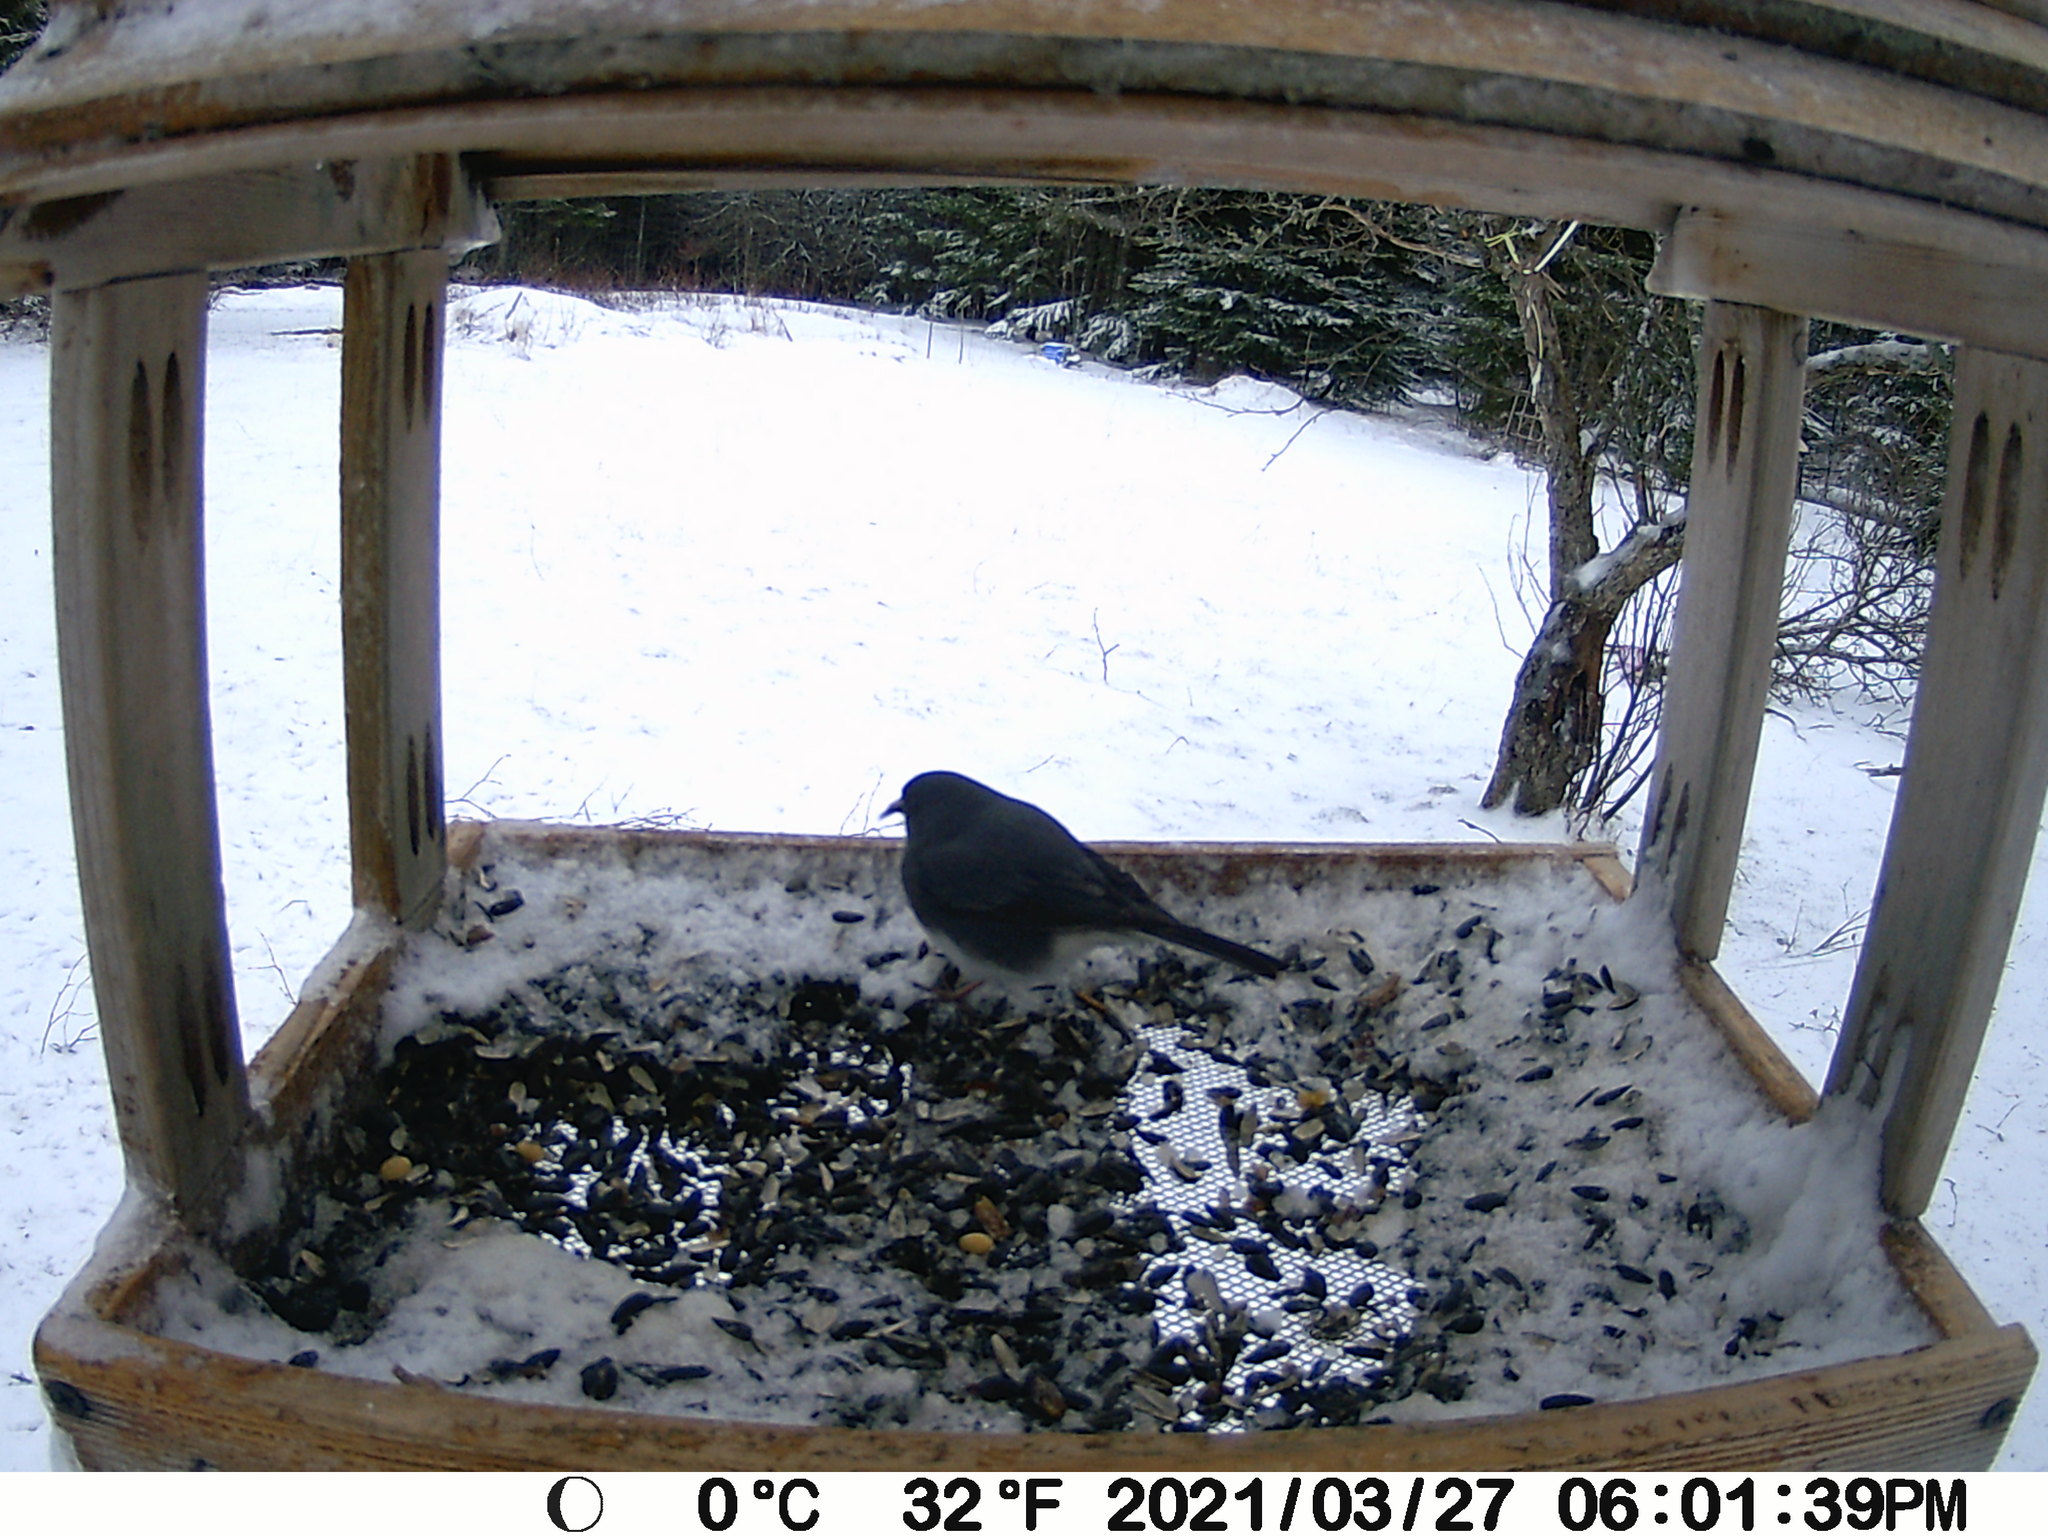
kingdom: Animalia
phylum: Chordata
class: Aves
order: Passeriformes
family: Passerellidae
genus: Junco
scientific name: Junco hyemalis
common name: Dark-eyed junco
